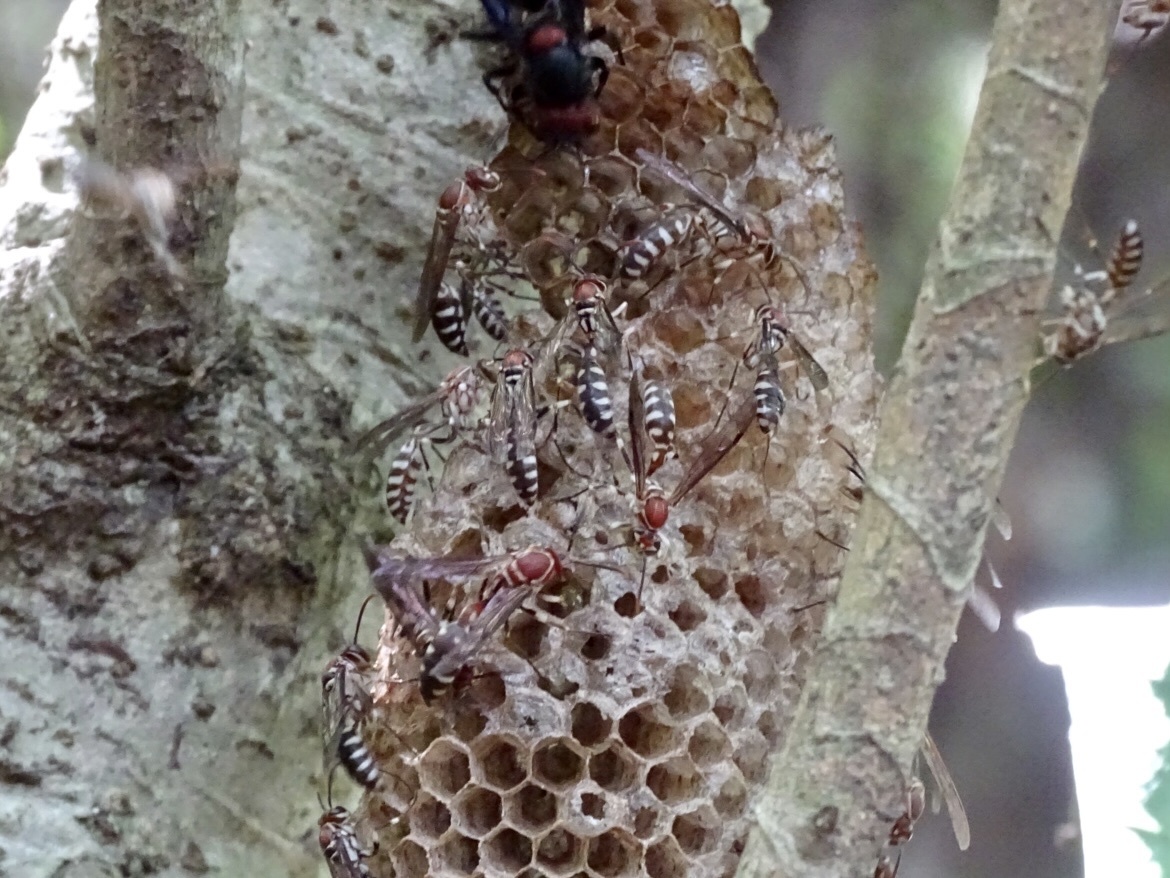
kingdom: Animalia
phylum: Arthropoda
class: Insecta
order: Hymenoptera
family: Vespidae
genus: Parapolybia
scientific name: Parapolybia nodosa
